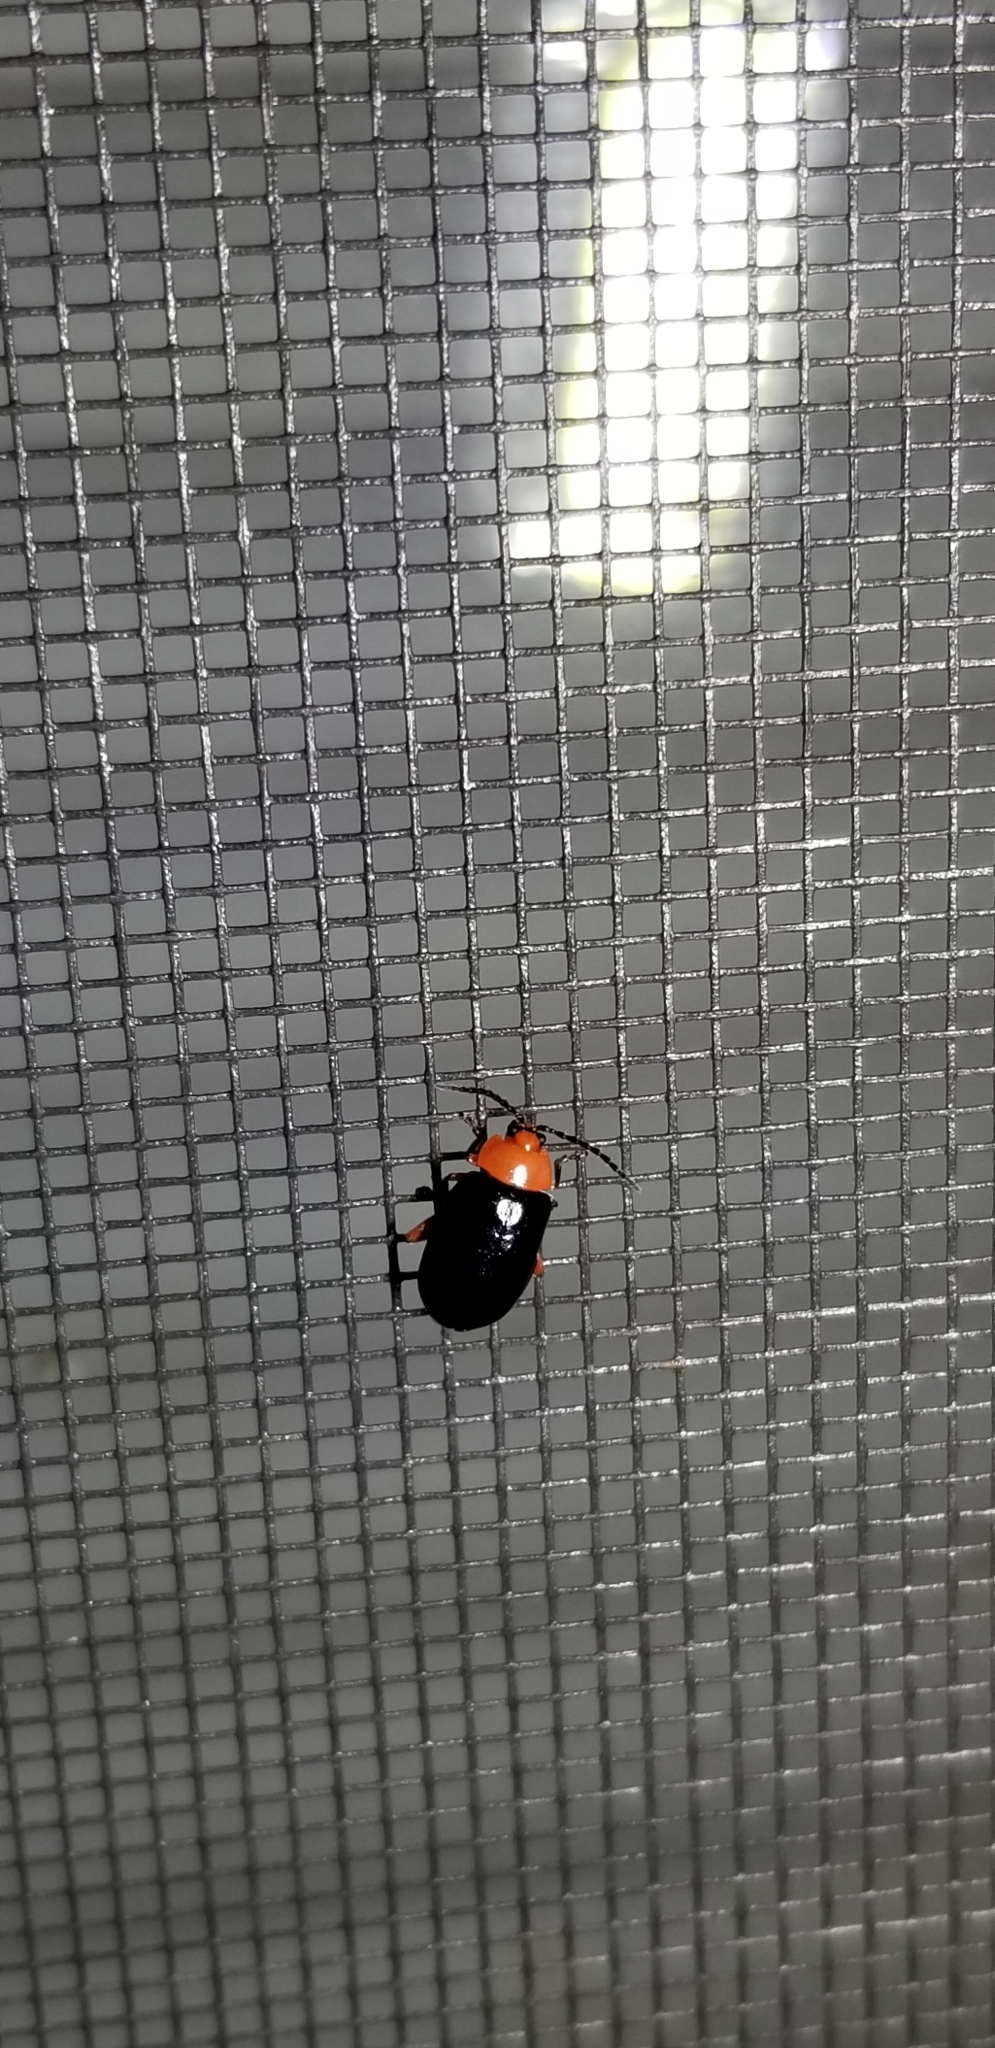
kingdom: Animalia
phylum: Arthropoda
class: Insecta
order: Coleoptera
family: Chrysomelidae
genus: Asphaera
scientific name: Asphaera lustrans
